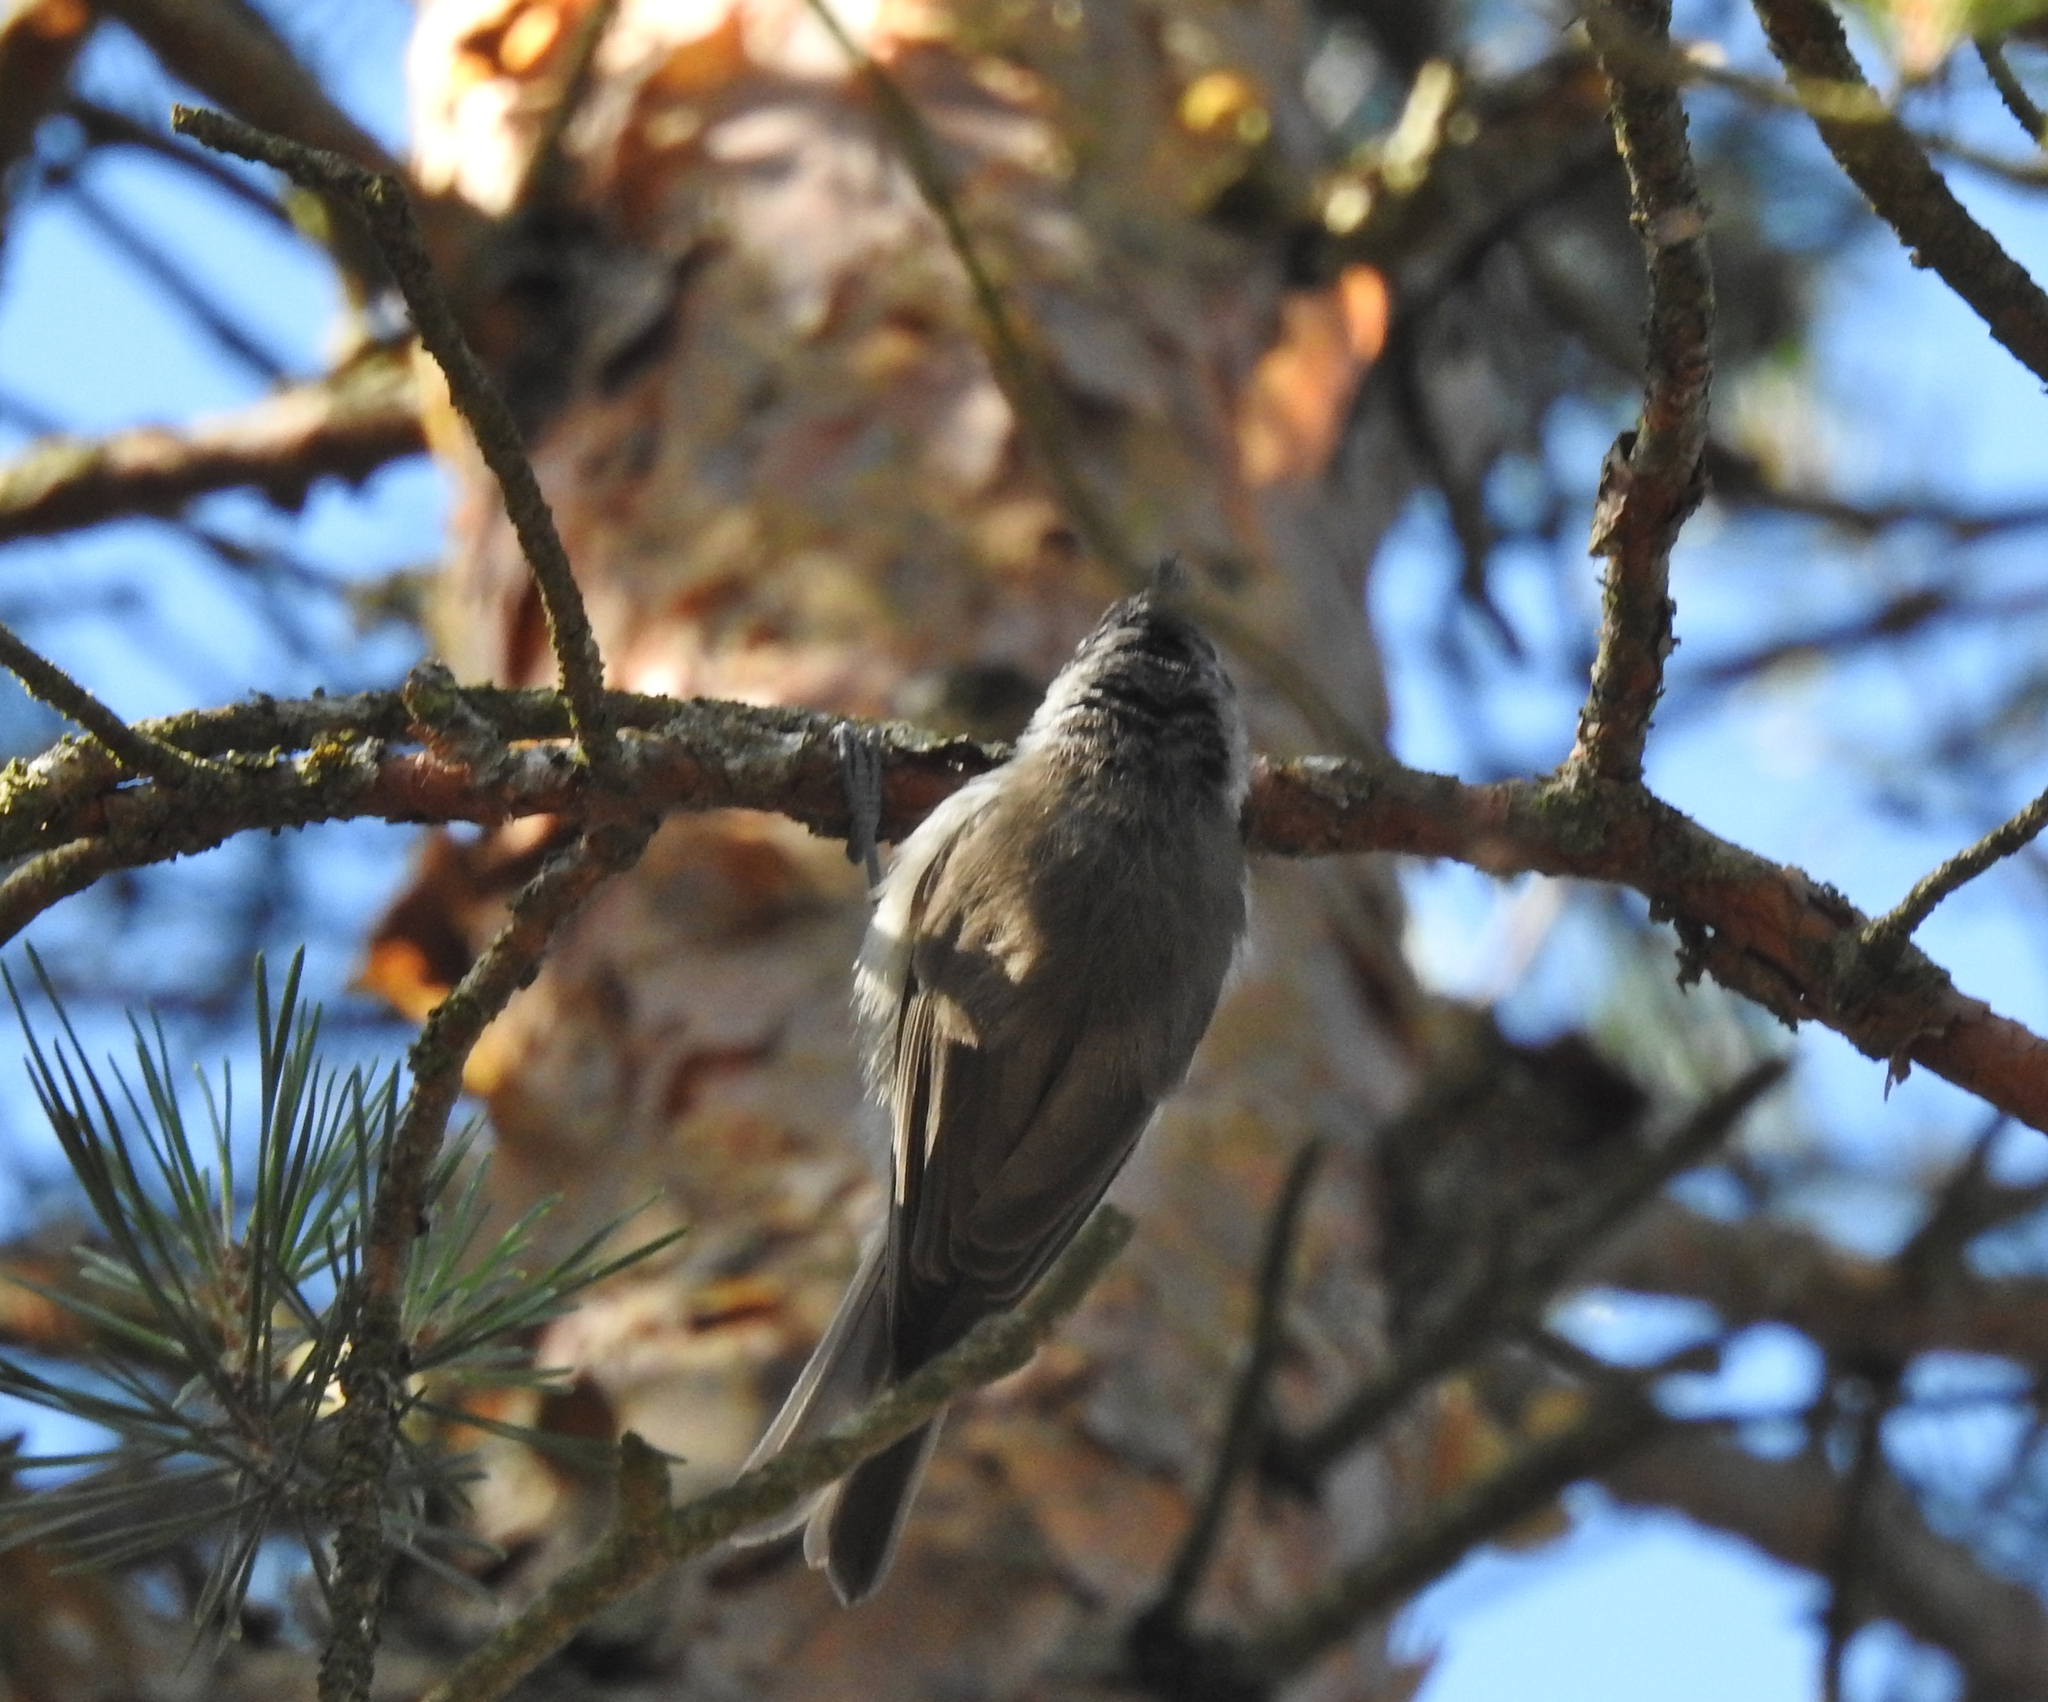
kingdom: Animalia
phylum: Chordata
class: Aves
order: Passeriformes
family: Paridae
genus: Lophophanes
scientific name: Lophophanes cristatus
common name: European crested tit
